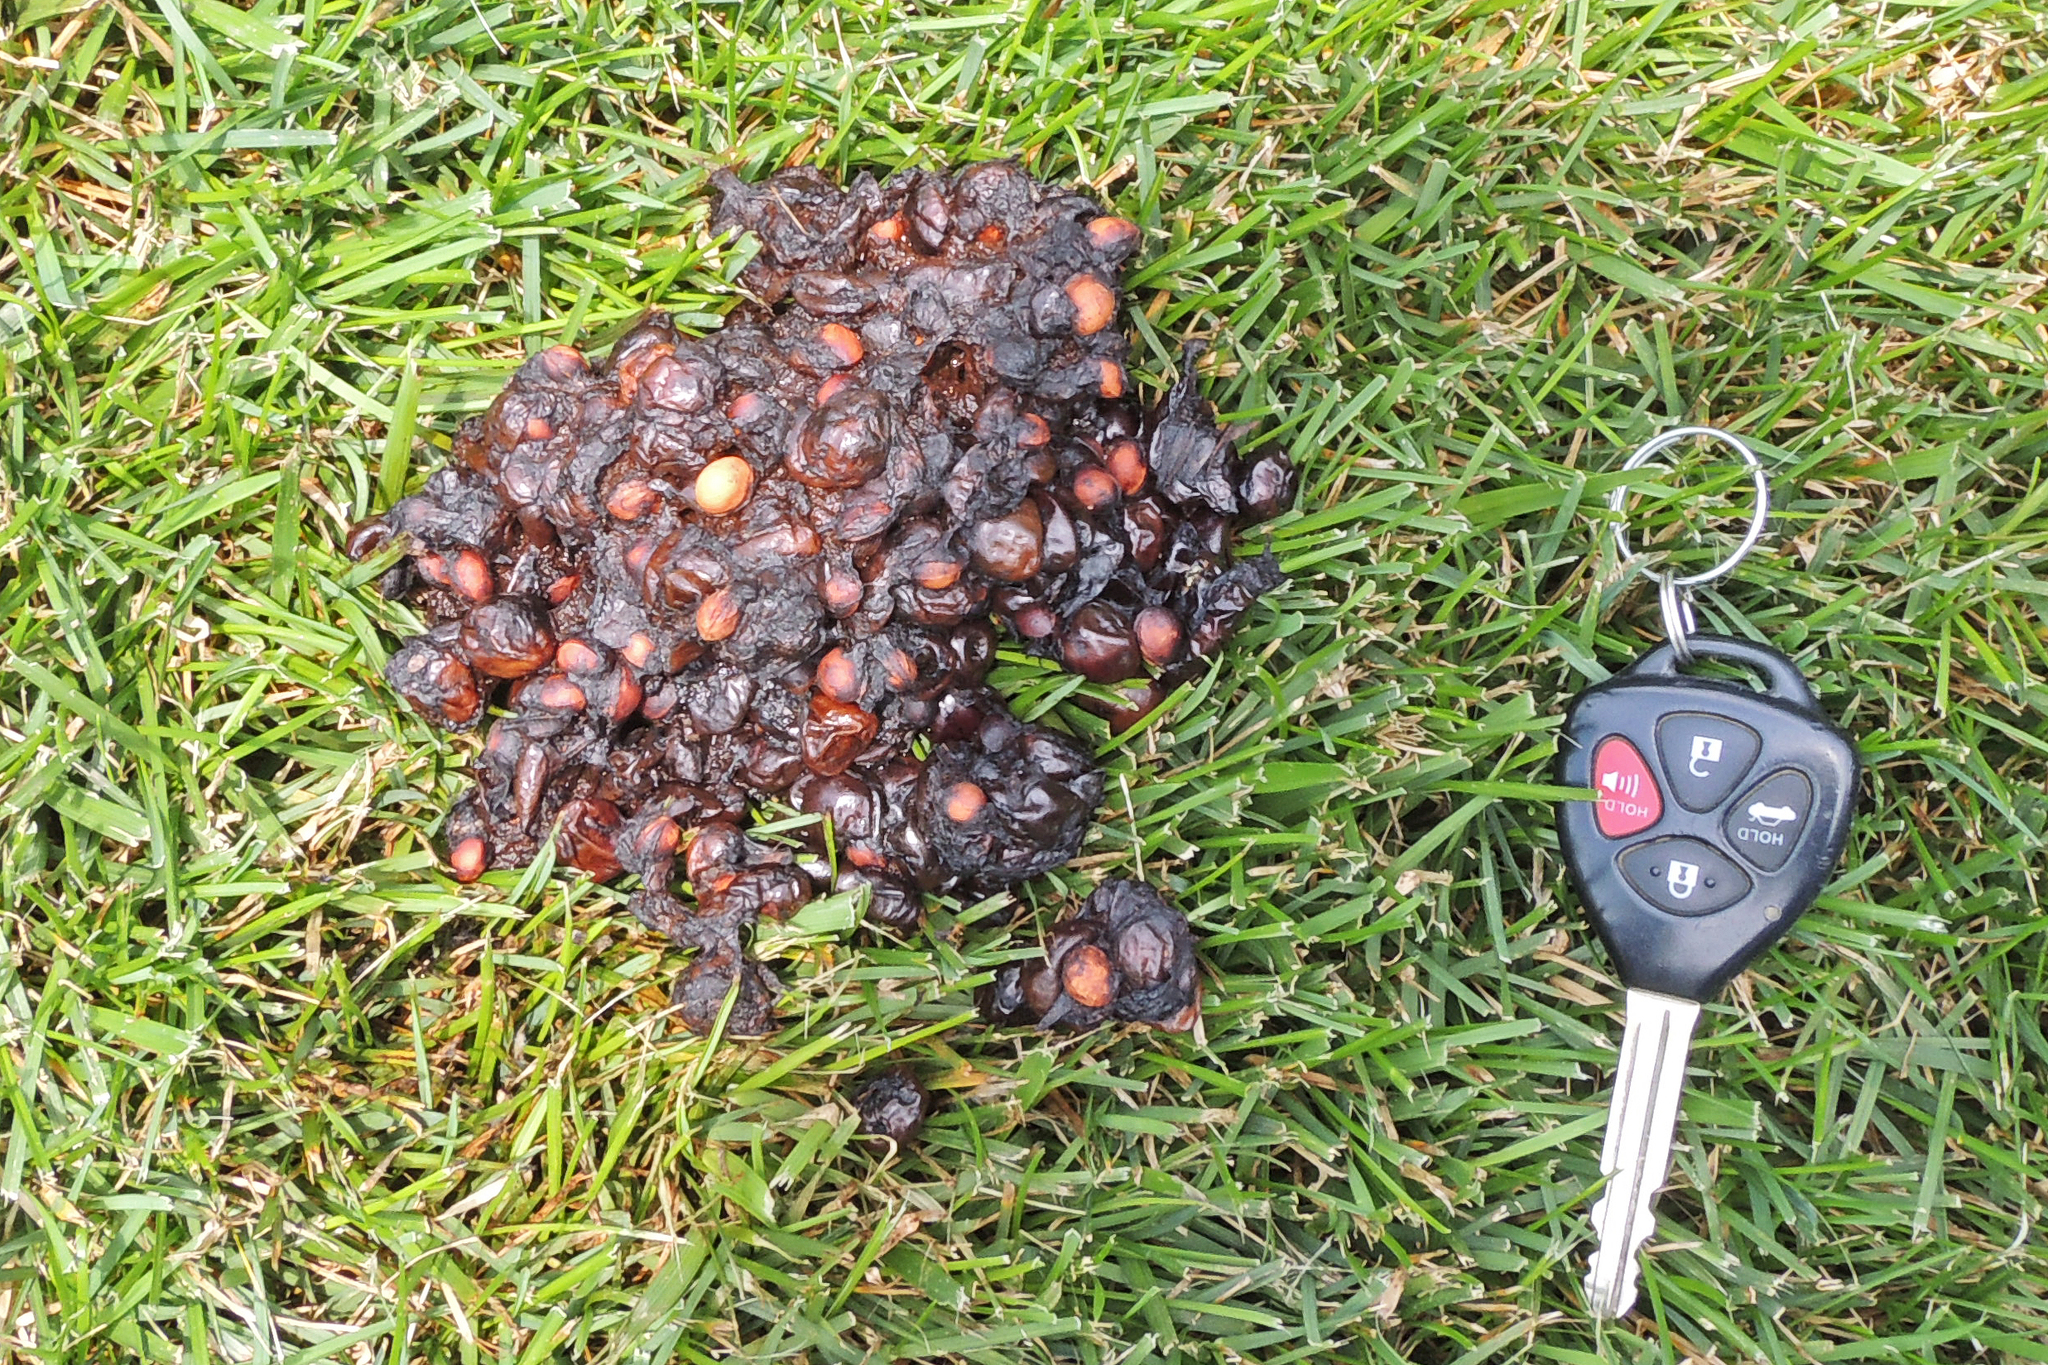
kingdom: Animalia
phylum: Chordata
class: Mammalia
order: Carnivora
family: Ursidae
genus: Ursus
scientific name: Ursus americanus
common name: American black bear
